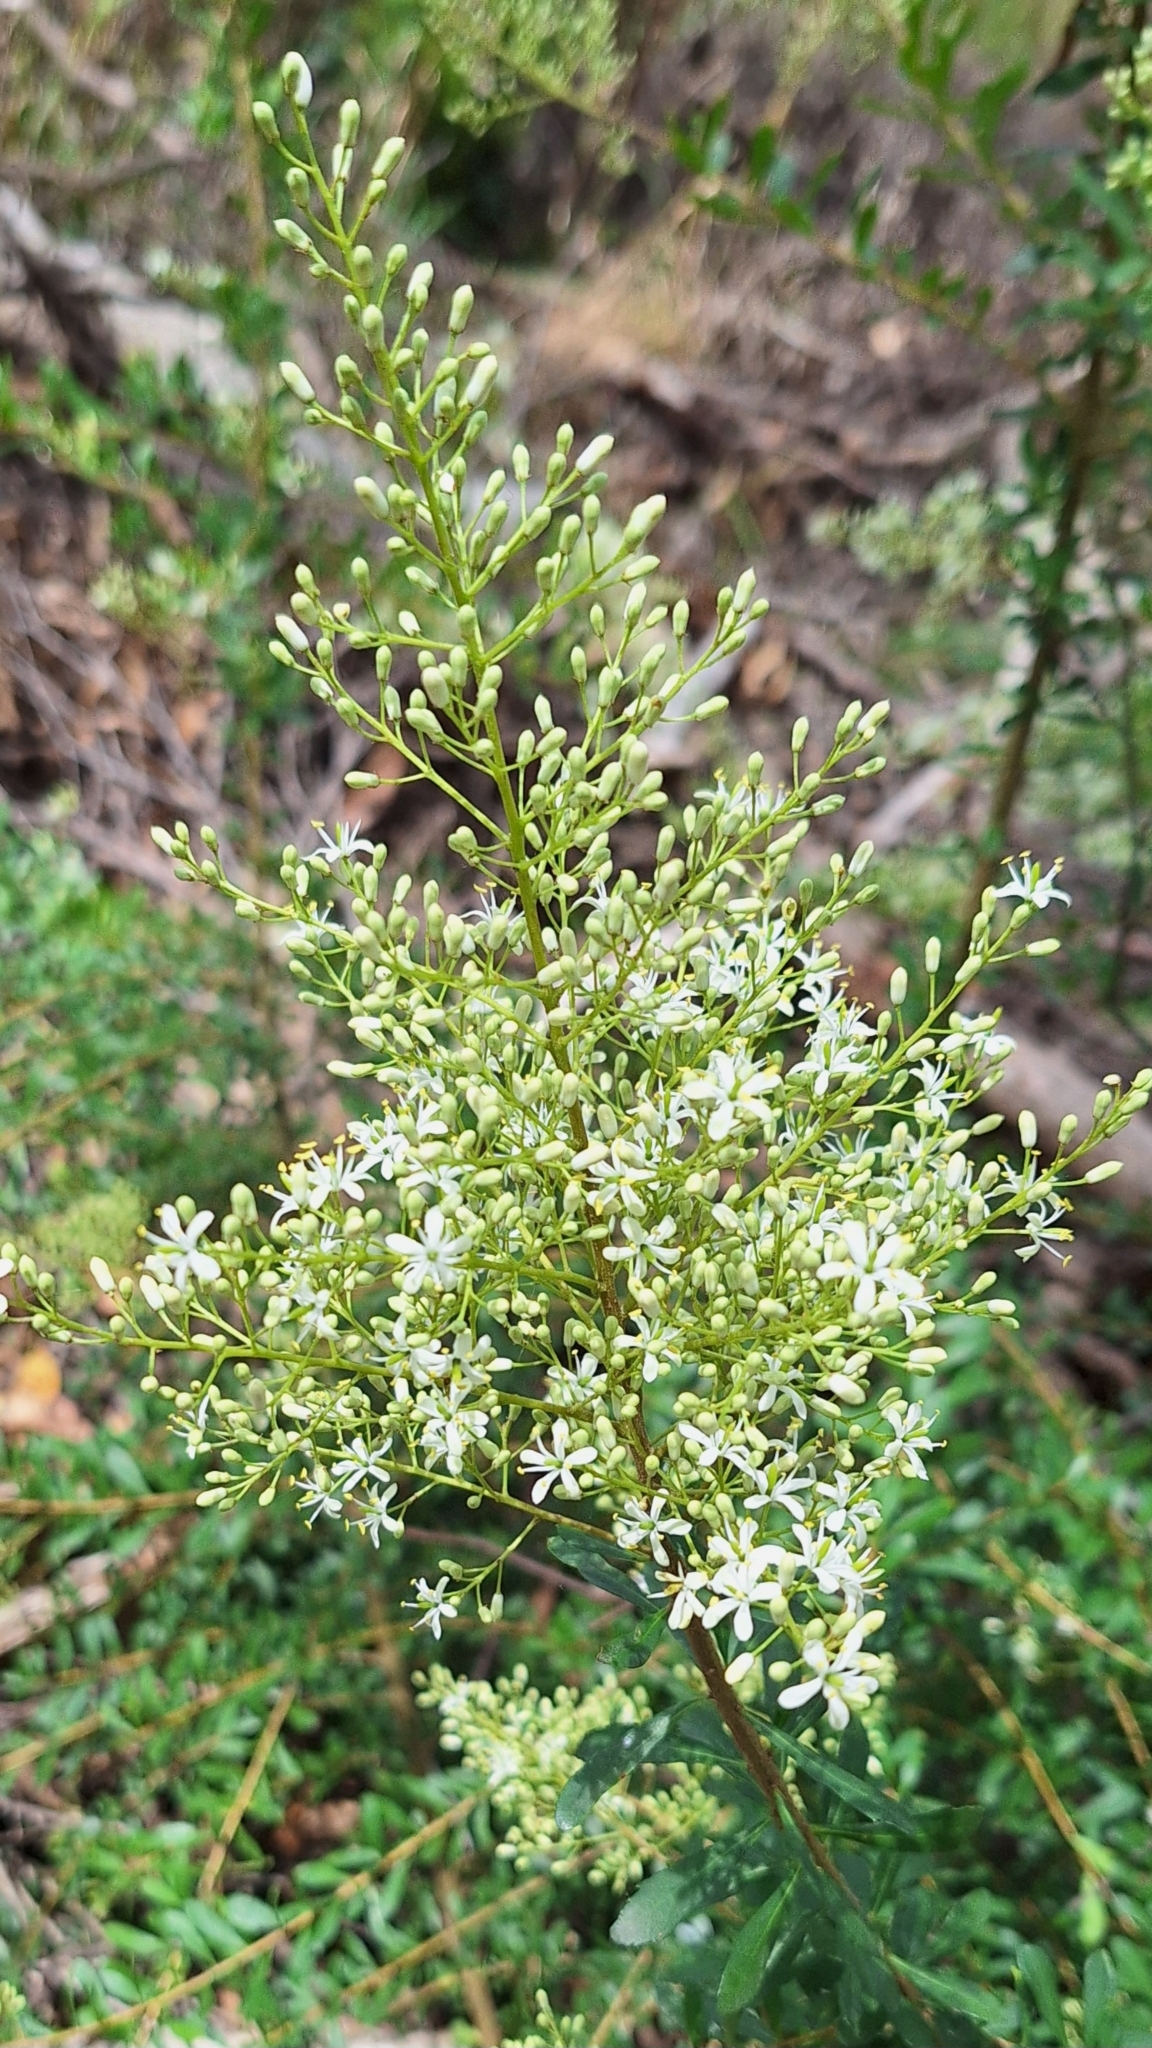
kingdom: Plantae
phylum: Tracheophyta
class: Magnoliopsida
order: Apiales
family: Pittosporaceae
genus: Bursaria
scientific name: Bursaria spinosa
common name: Australian blackthorn
